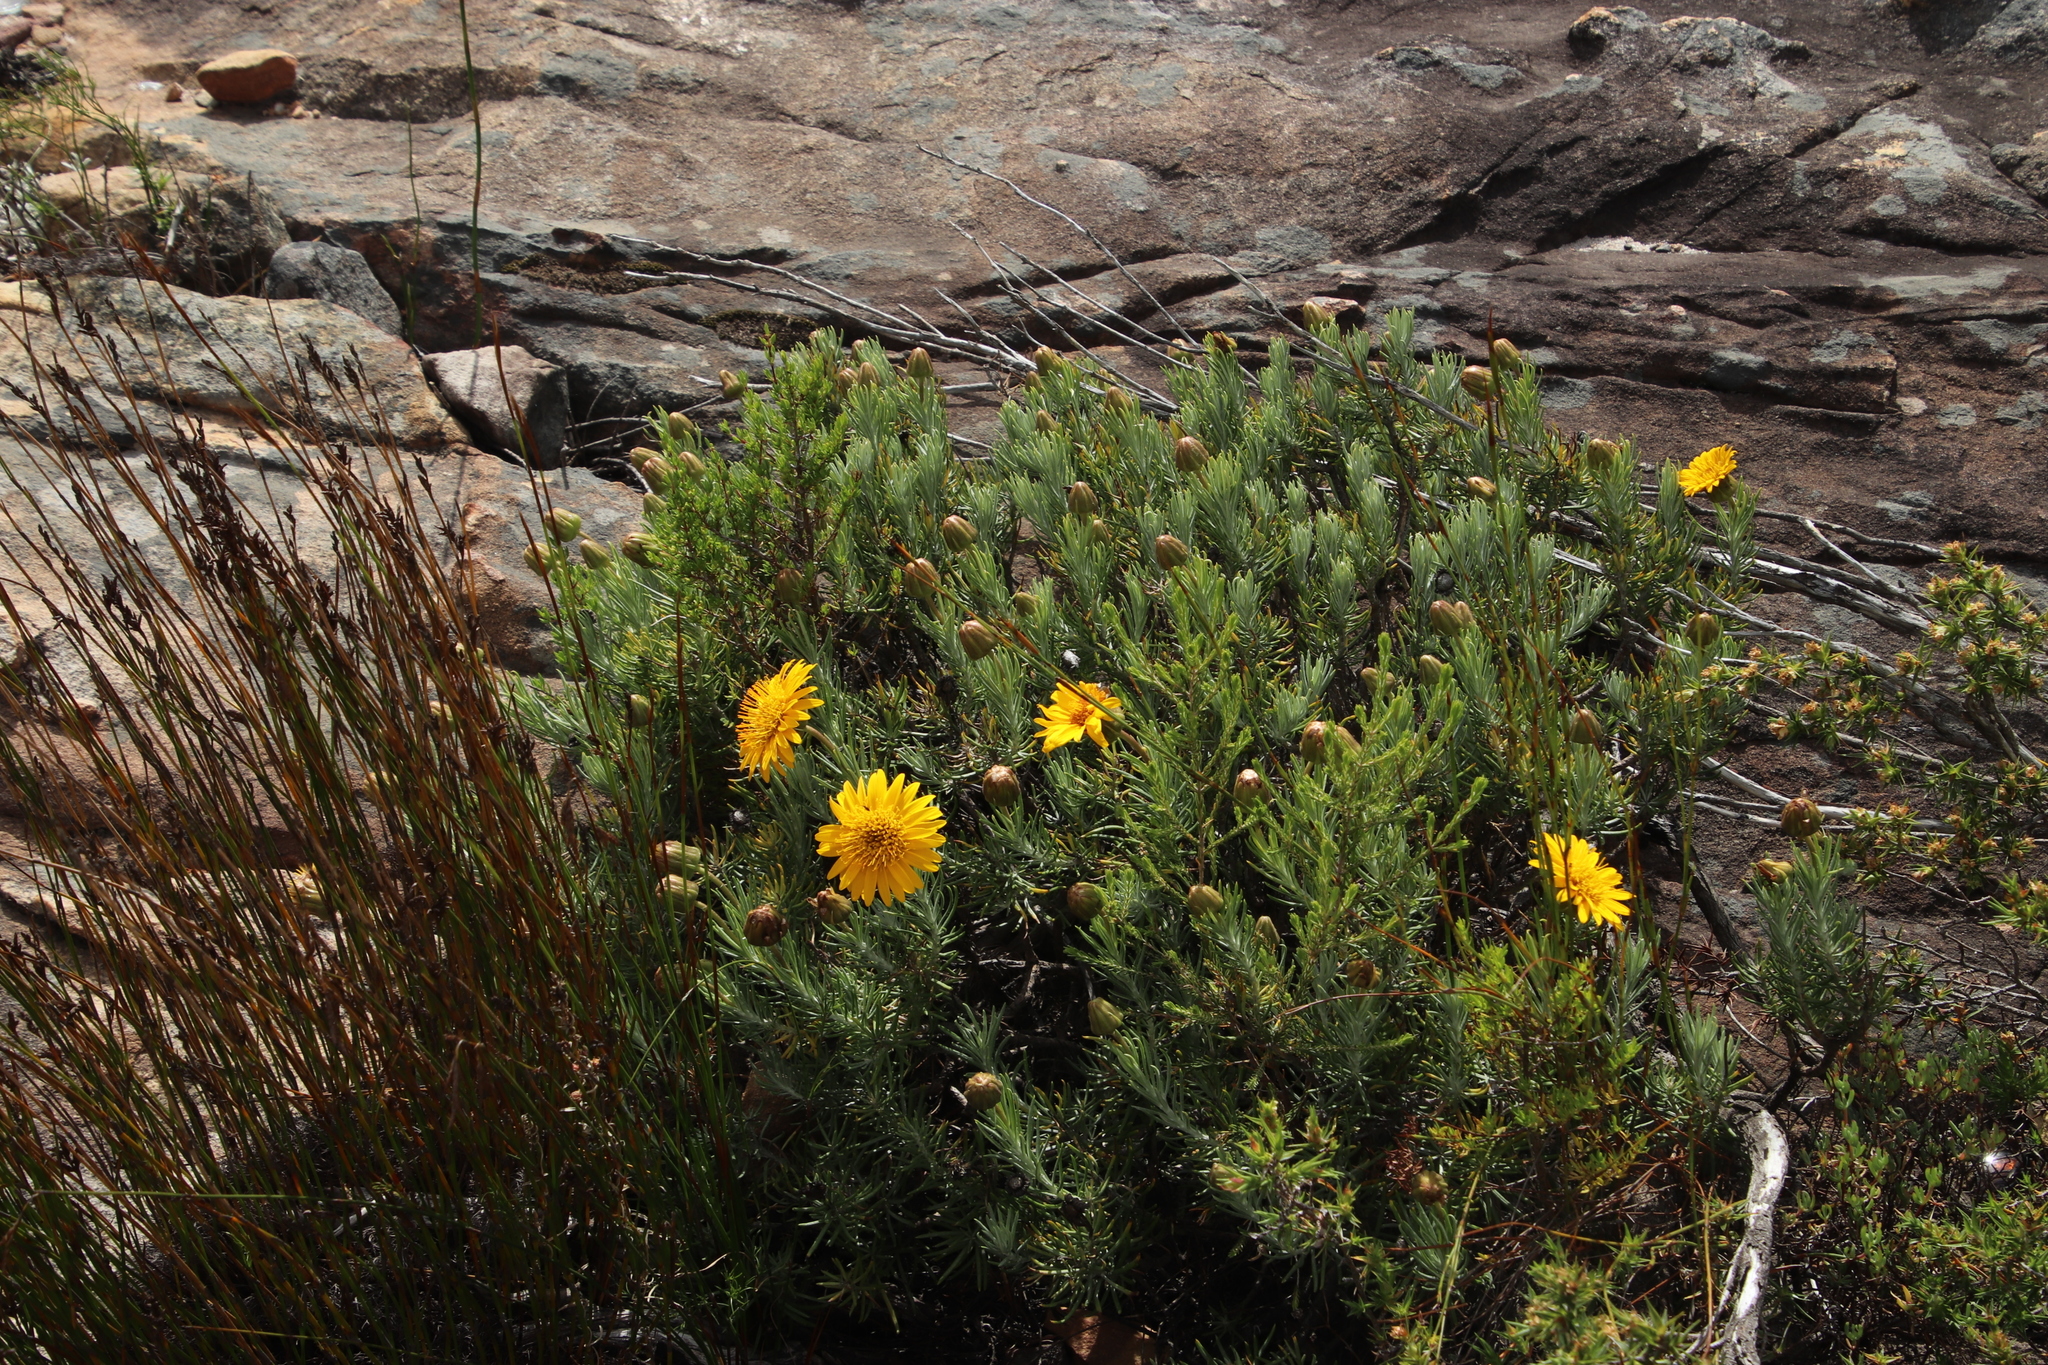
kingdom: Plantae
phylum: Tracheophyta
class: Magnoliopsida
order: Asterales
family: Asteraceae
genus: Heterolepis
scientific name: Heterolepis aliena
